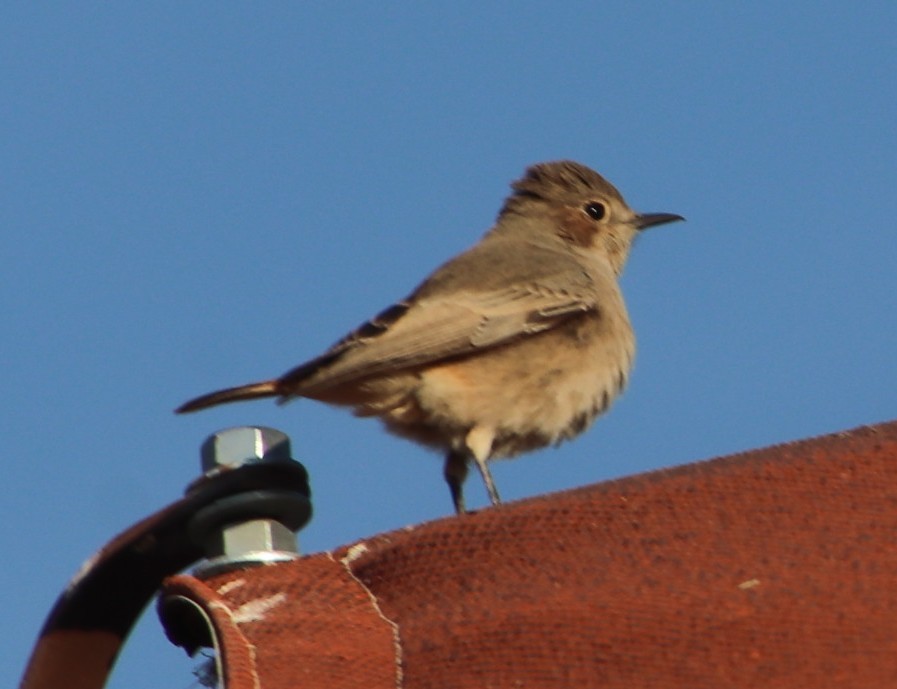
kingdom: Animalia
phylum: Chordata
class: Aves
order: Passeriformes
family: Muscicapidae
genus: Oenanthe
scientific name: Oenanthe familiaris
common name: Familiar chat
